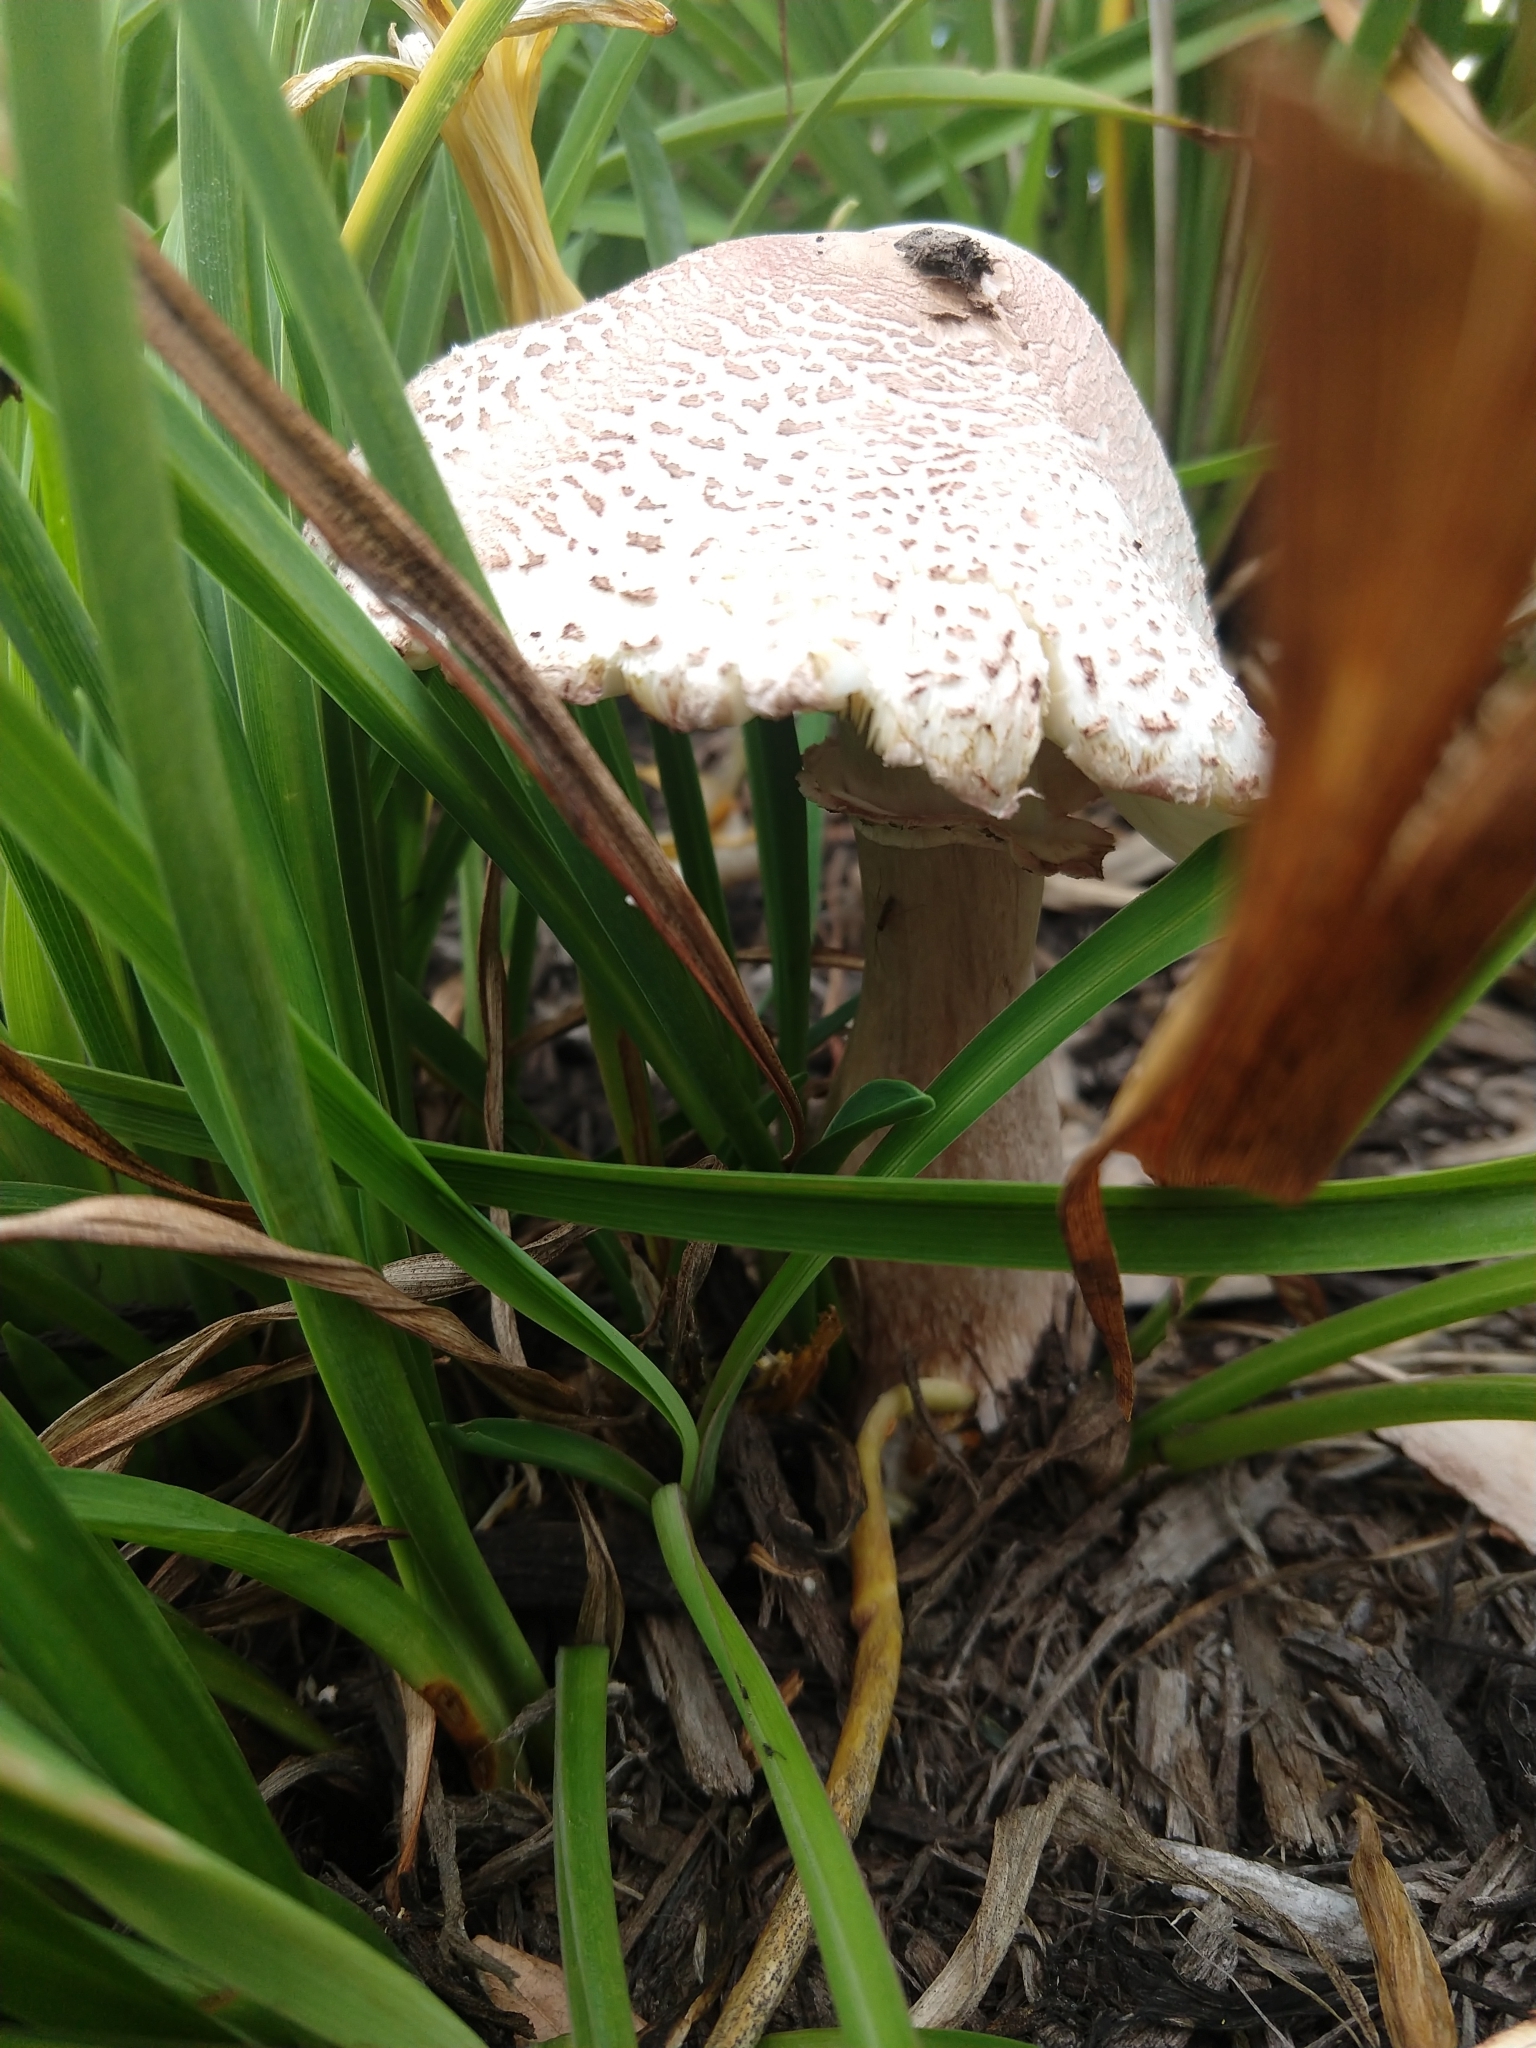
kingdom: Fungi
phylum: Basidiomycota
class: Agaricomycetes
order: Agaricales
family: Agaricaceae
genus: Leucoagaricus
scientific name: Leucoagaricus americanus
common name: Reddening lepiota
